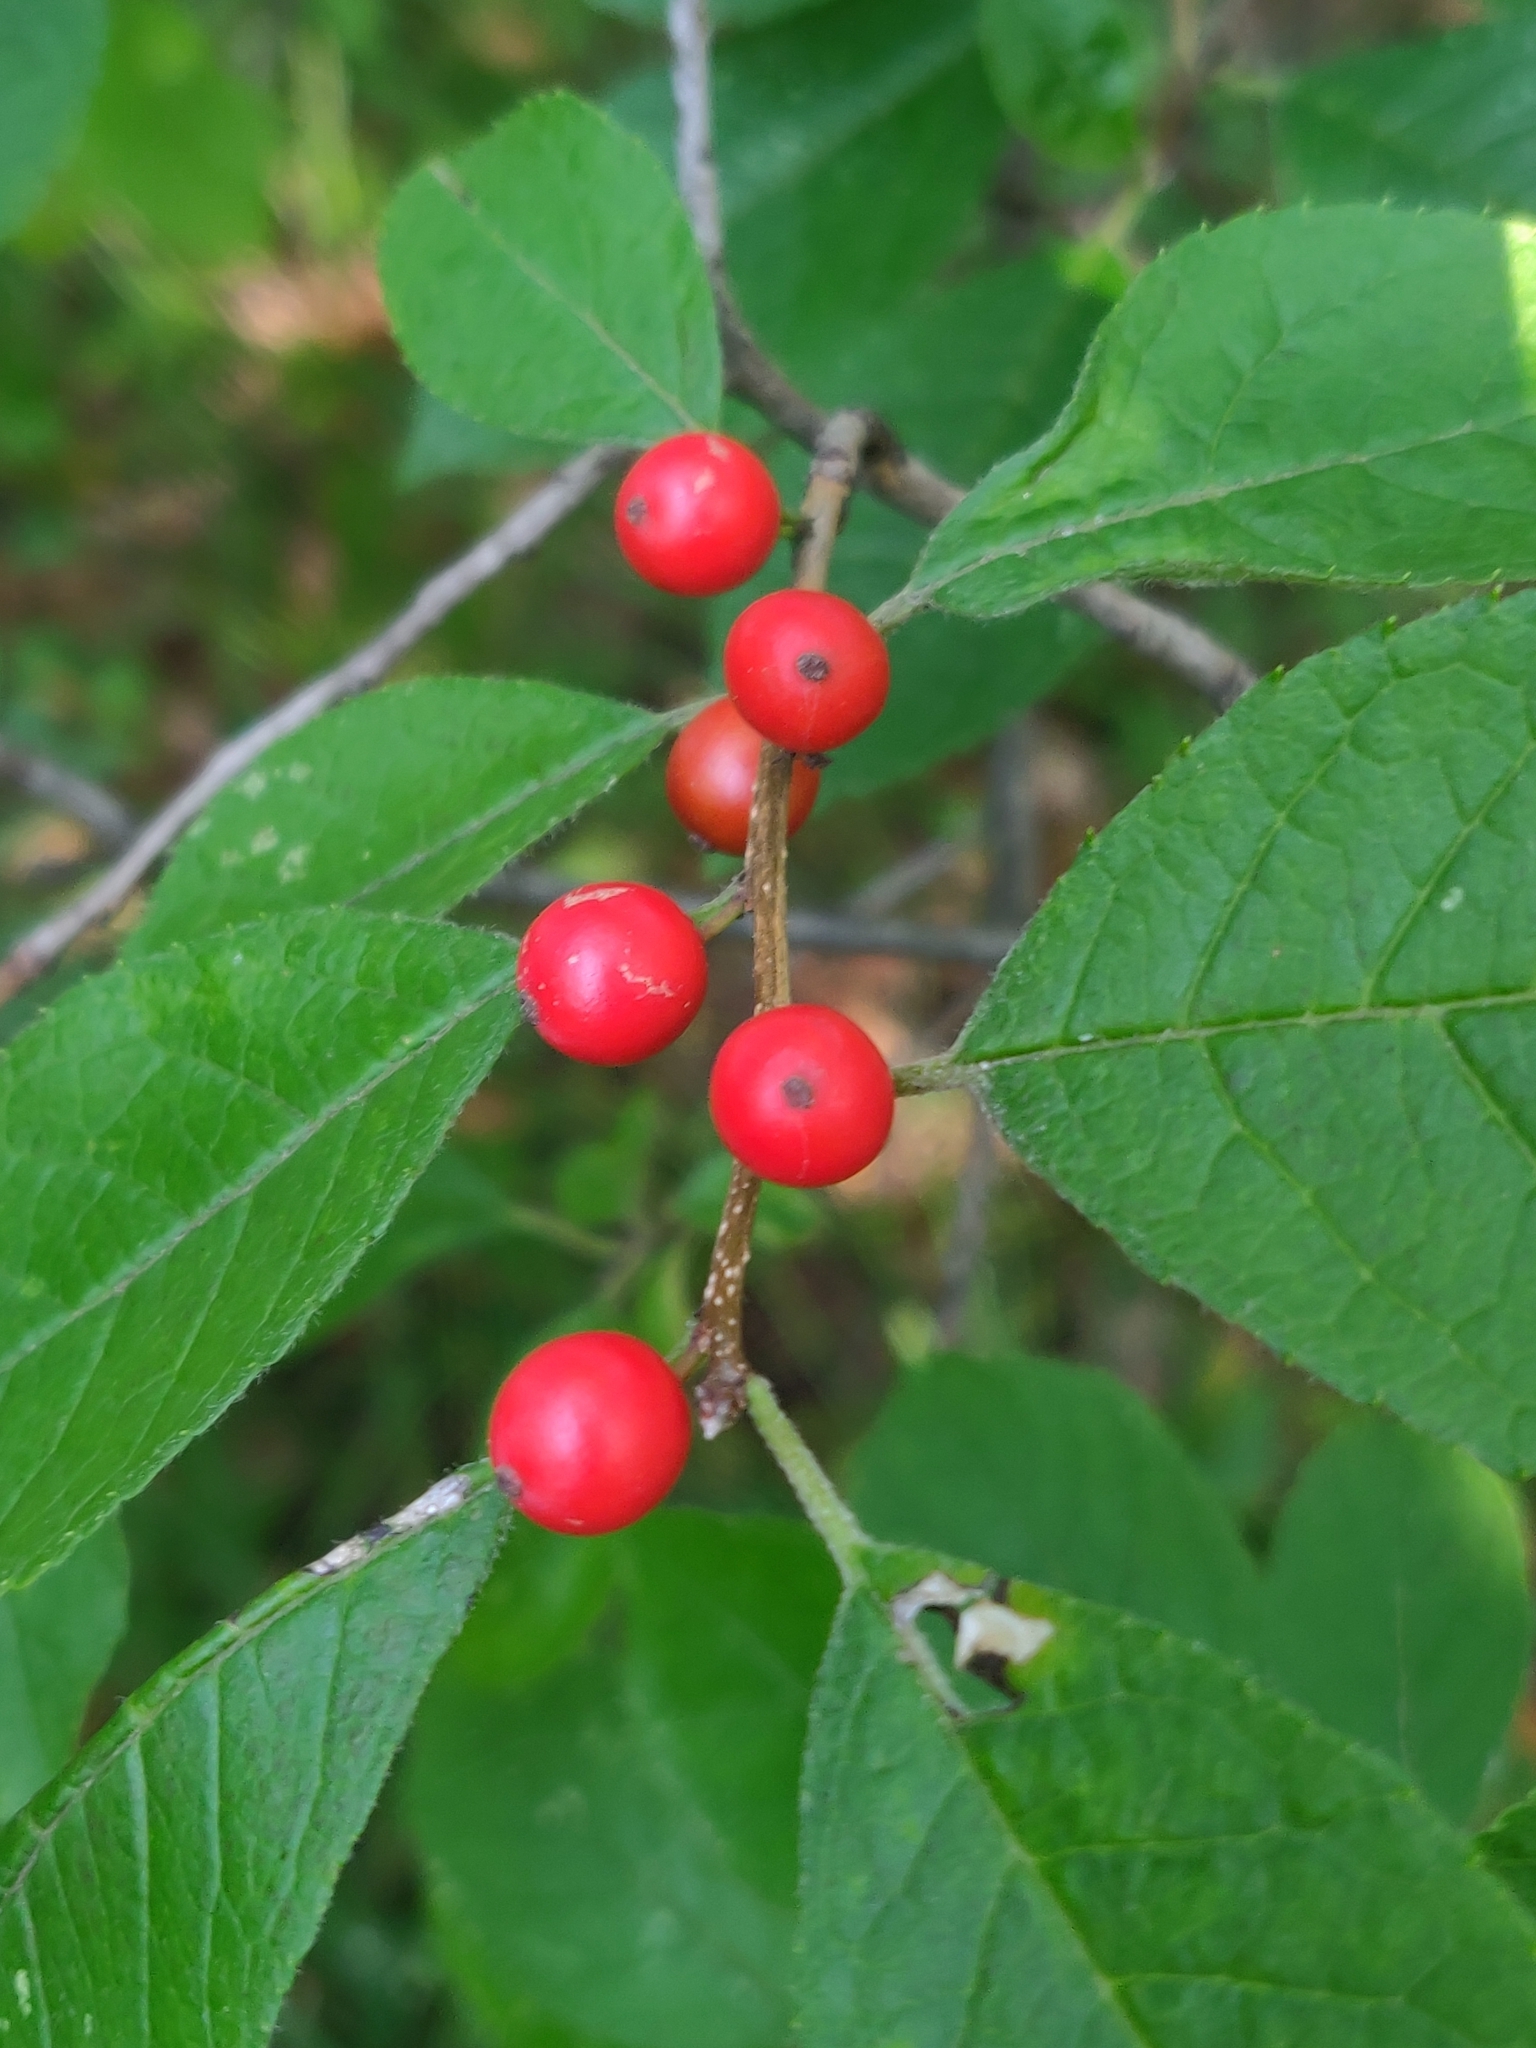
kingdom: Plantae
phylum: Tracheophyta
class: Magnoliopsida
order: Aquifoliales
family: Aquifoliaceae
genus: Ilex
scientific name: Ilex verticillata
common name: Virginia winterberry
